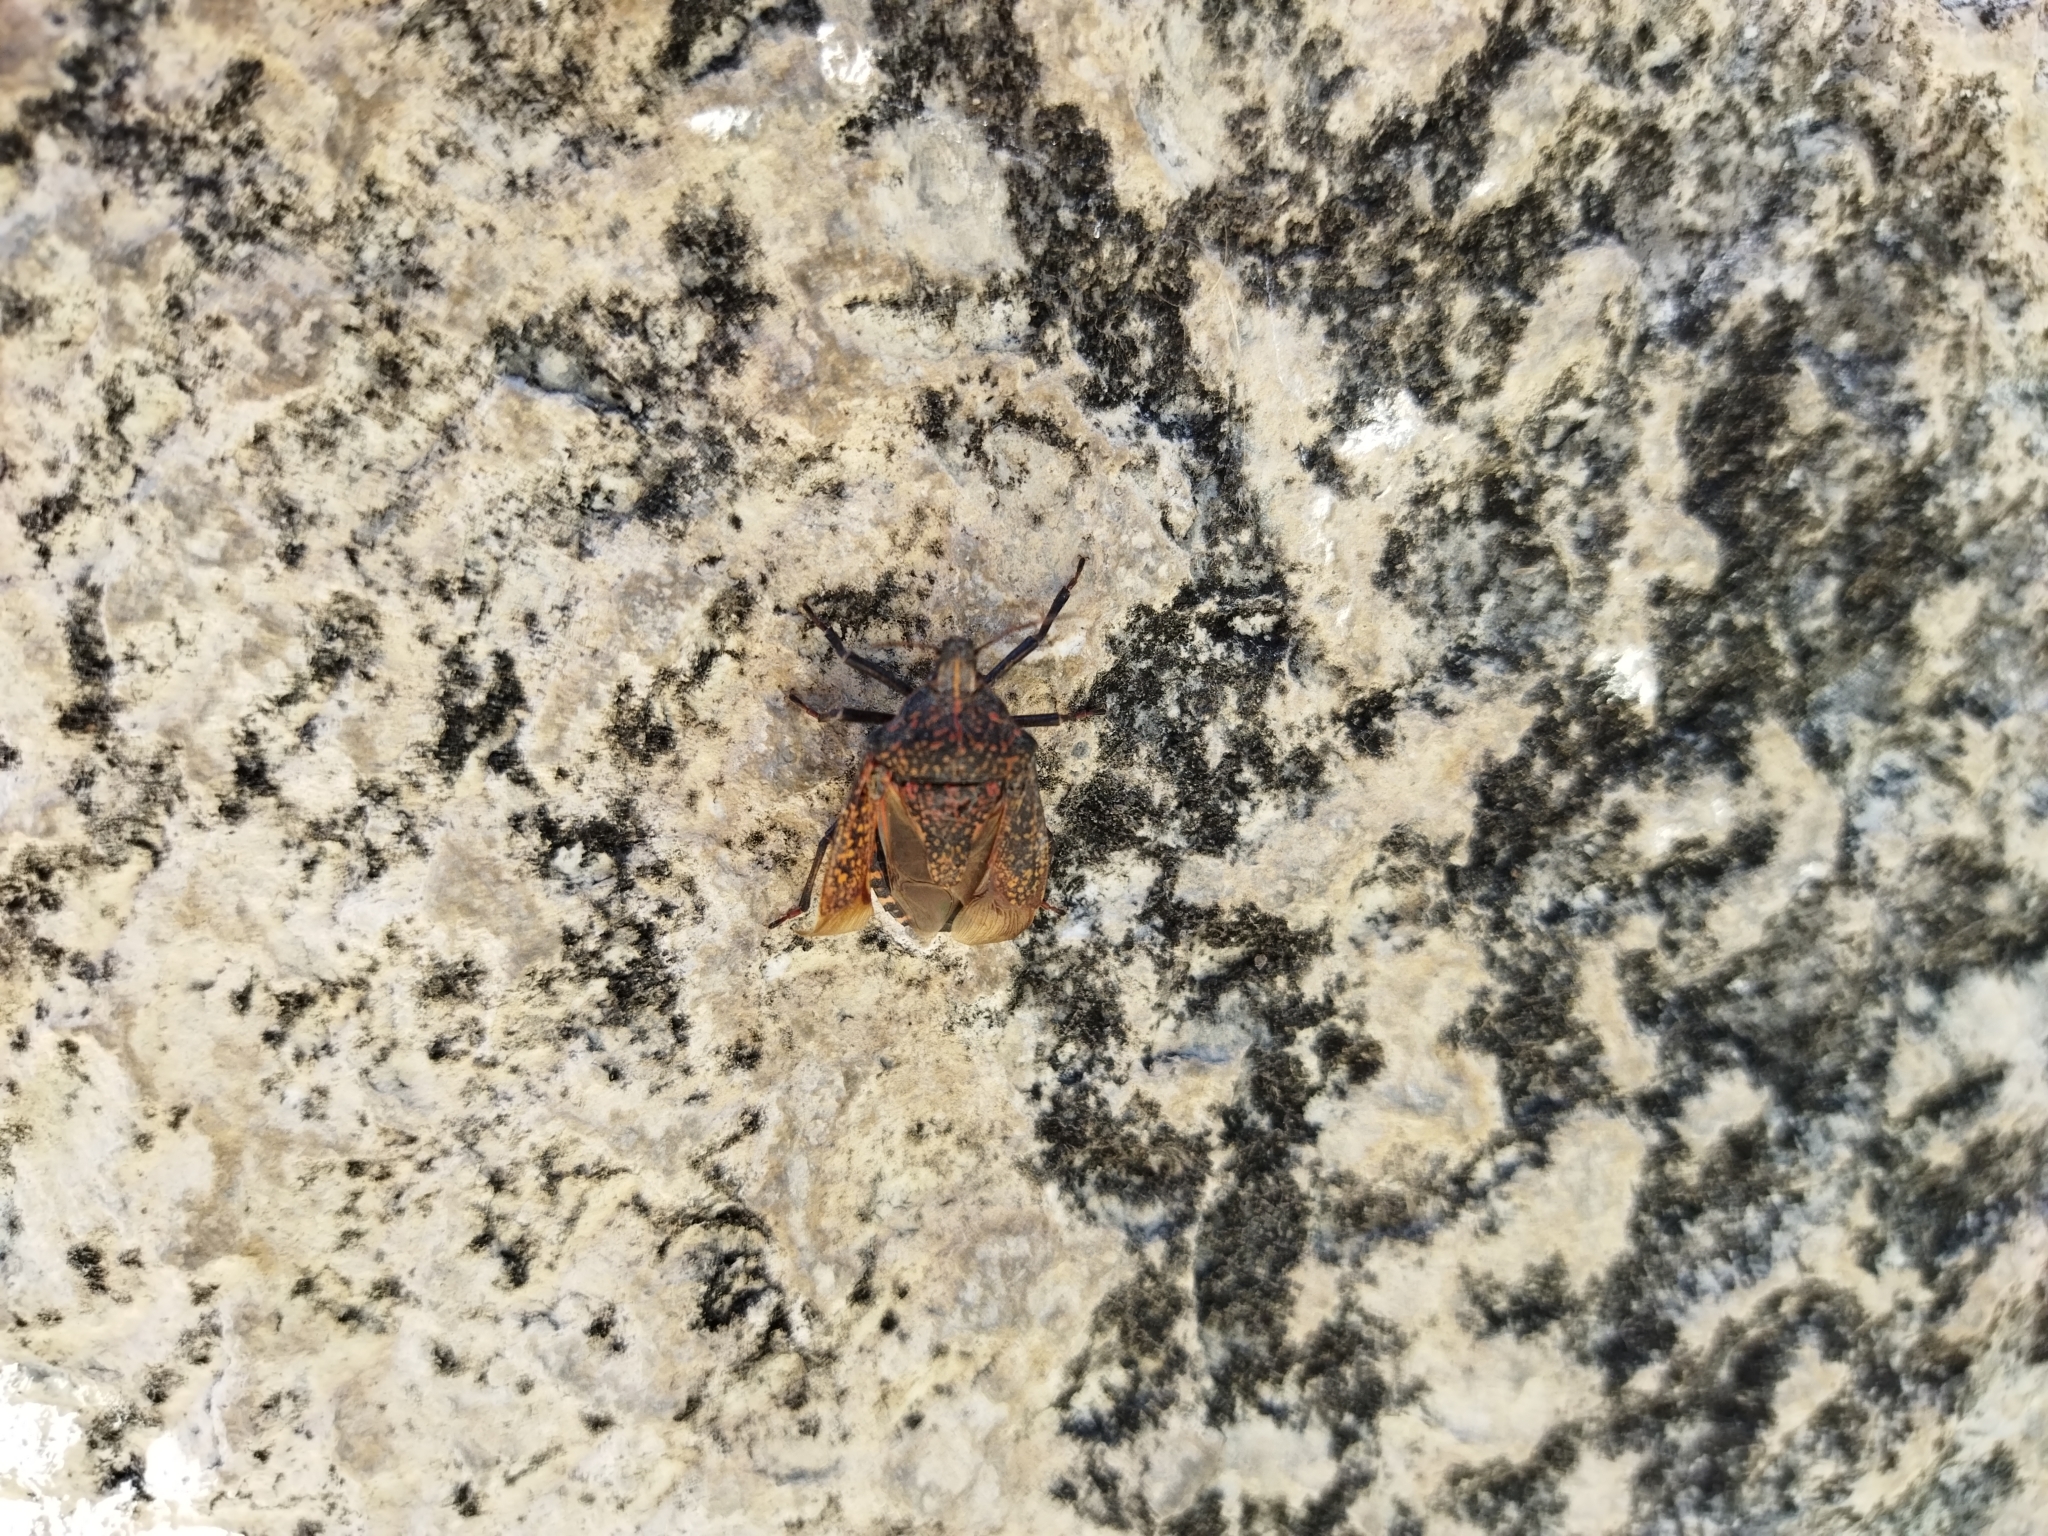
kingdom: Animalia
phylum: Arthropoda
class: Insecta
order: Hemiptera
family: Pentatomidae
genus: Apodiphus
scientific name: Apodiphus amygdali
